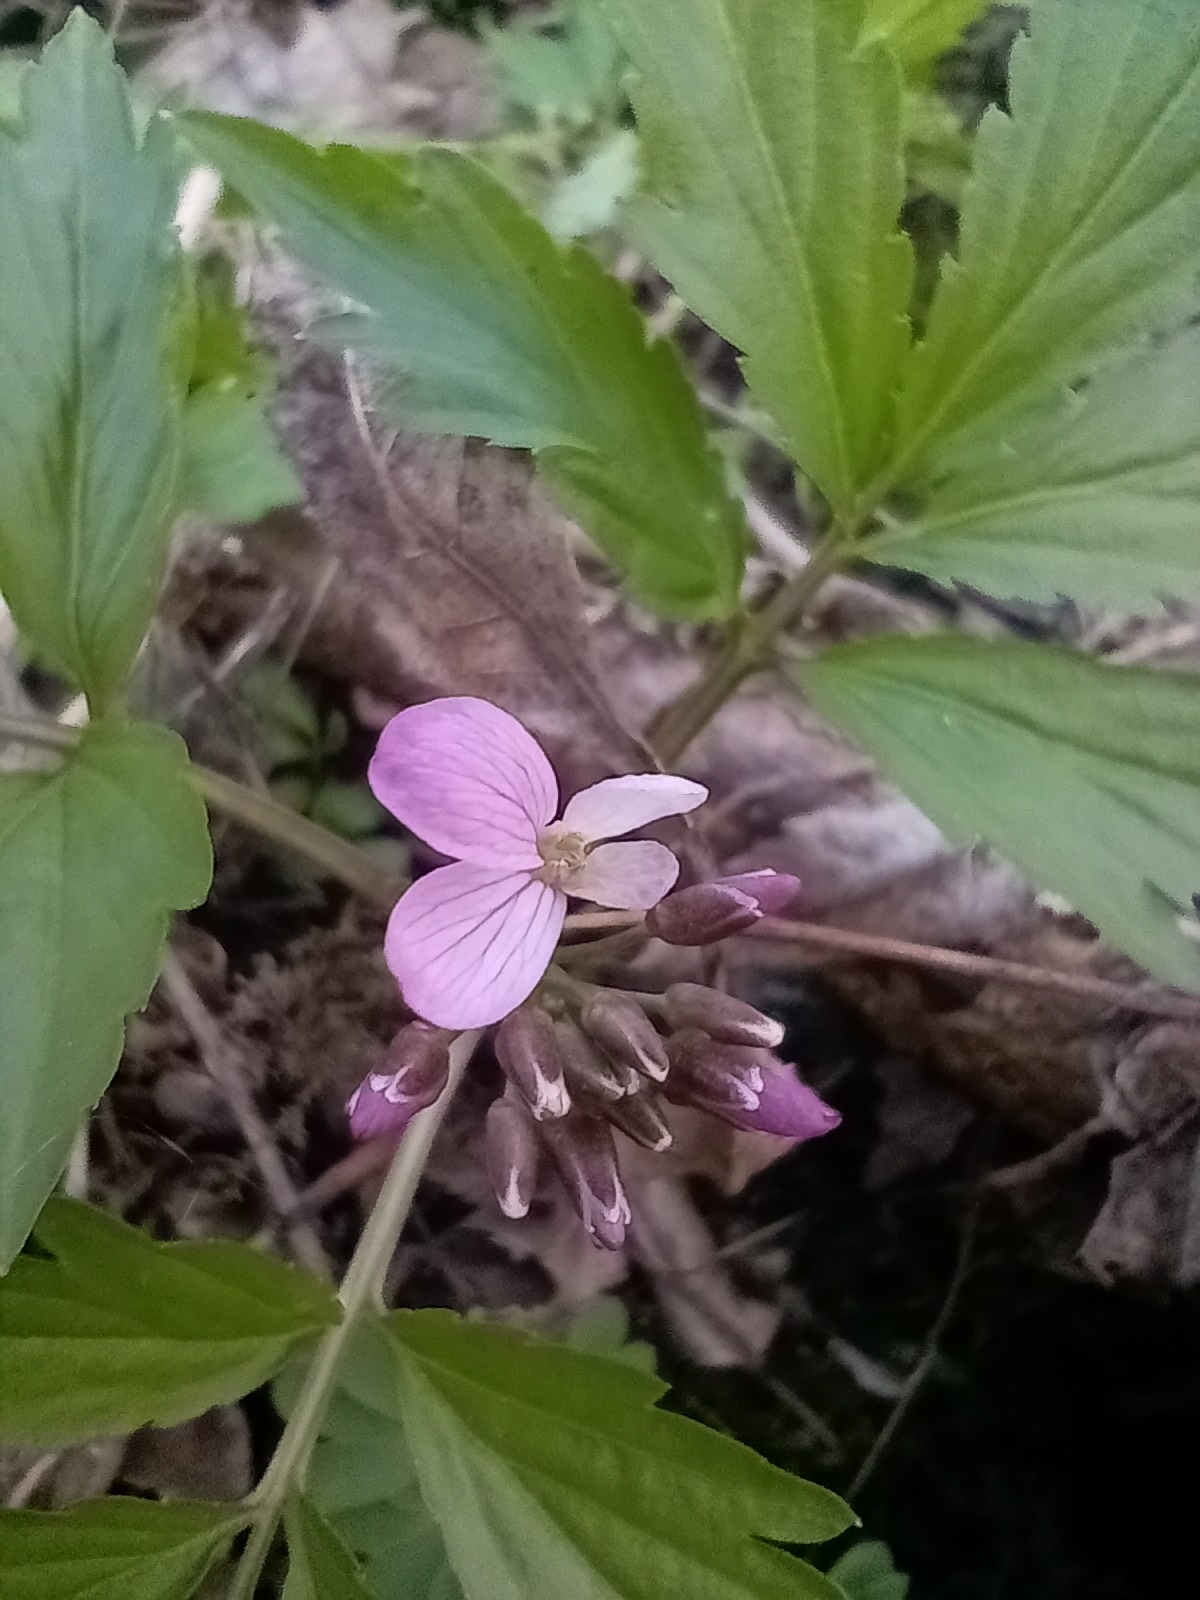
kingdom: Plantae
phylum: Tracheophyta
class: Magnoliopsida
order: Brassicales
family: Brassicaceae
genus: Cardamine
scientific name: Cardamine quinquefolia
